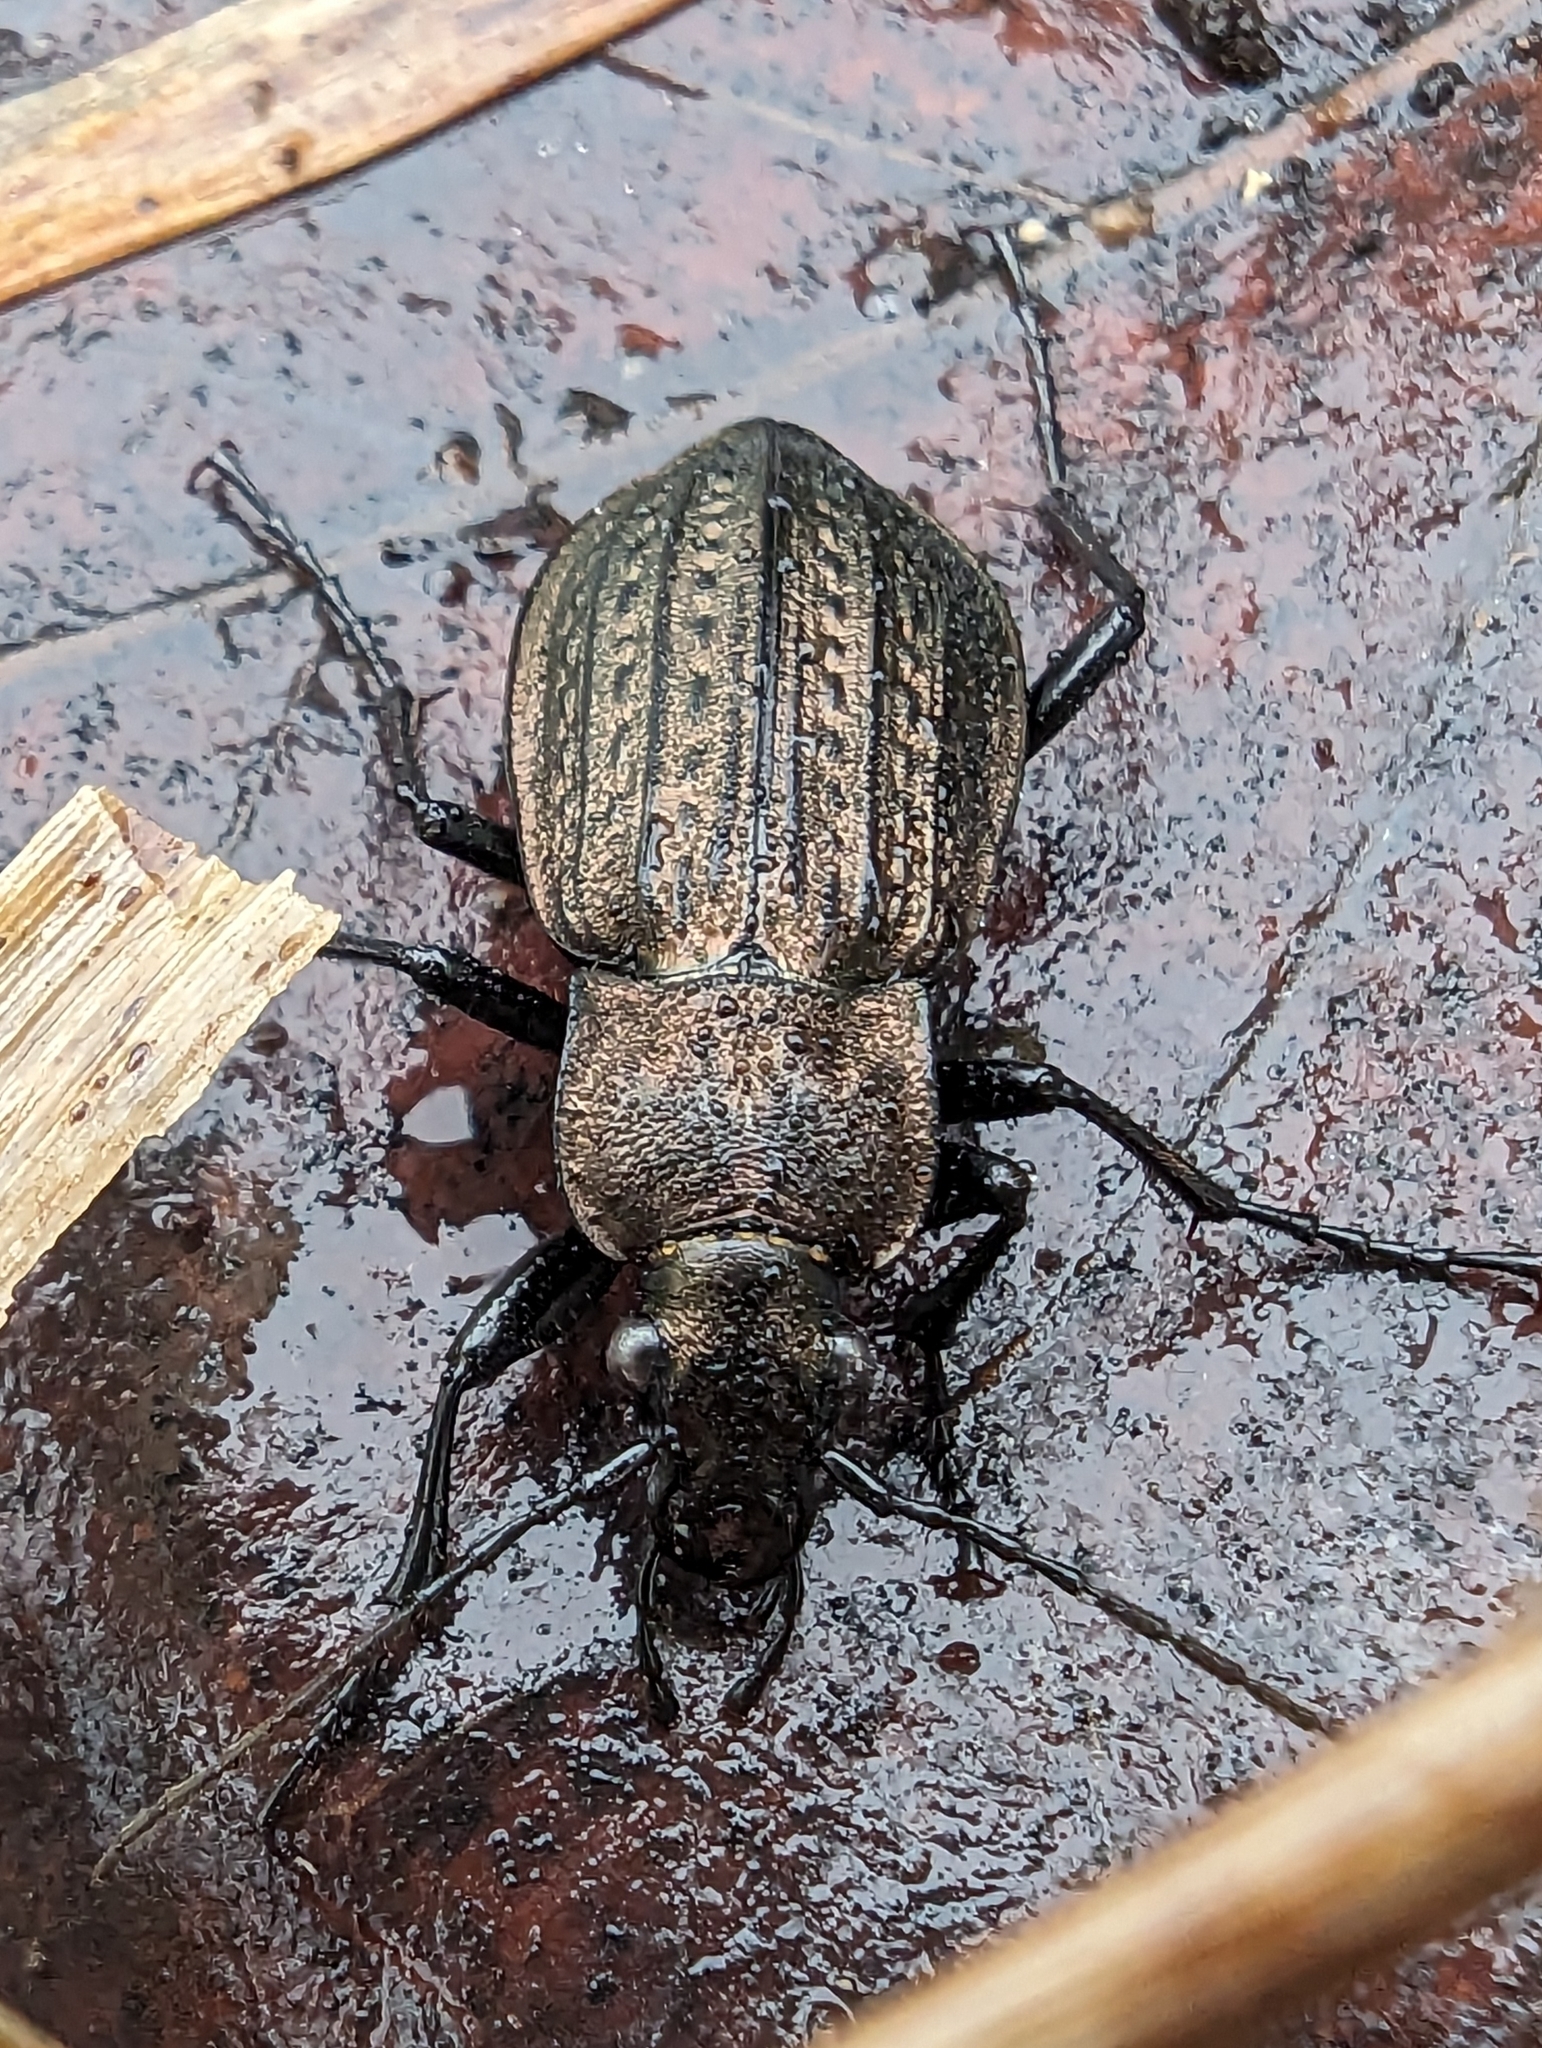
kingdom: Animalia
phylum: Arthropoda
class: Insecta
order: Coleoptera
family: Carabidae
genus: Carabus
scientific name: Carabus granulatus
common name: Granulate ground beetle
